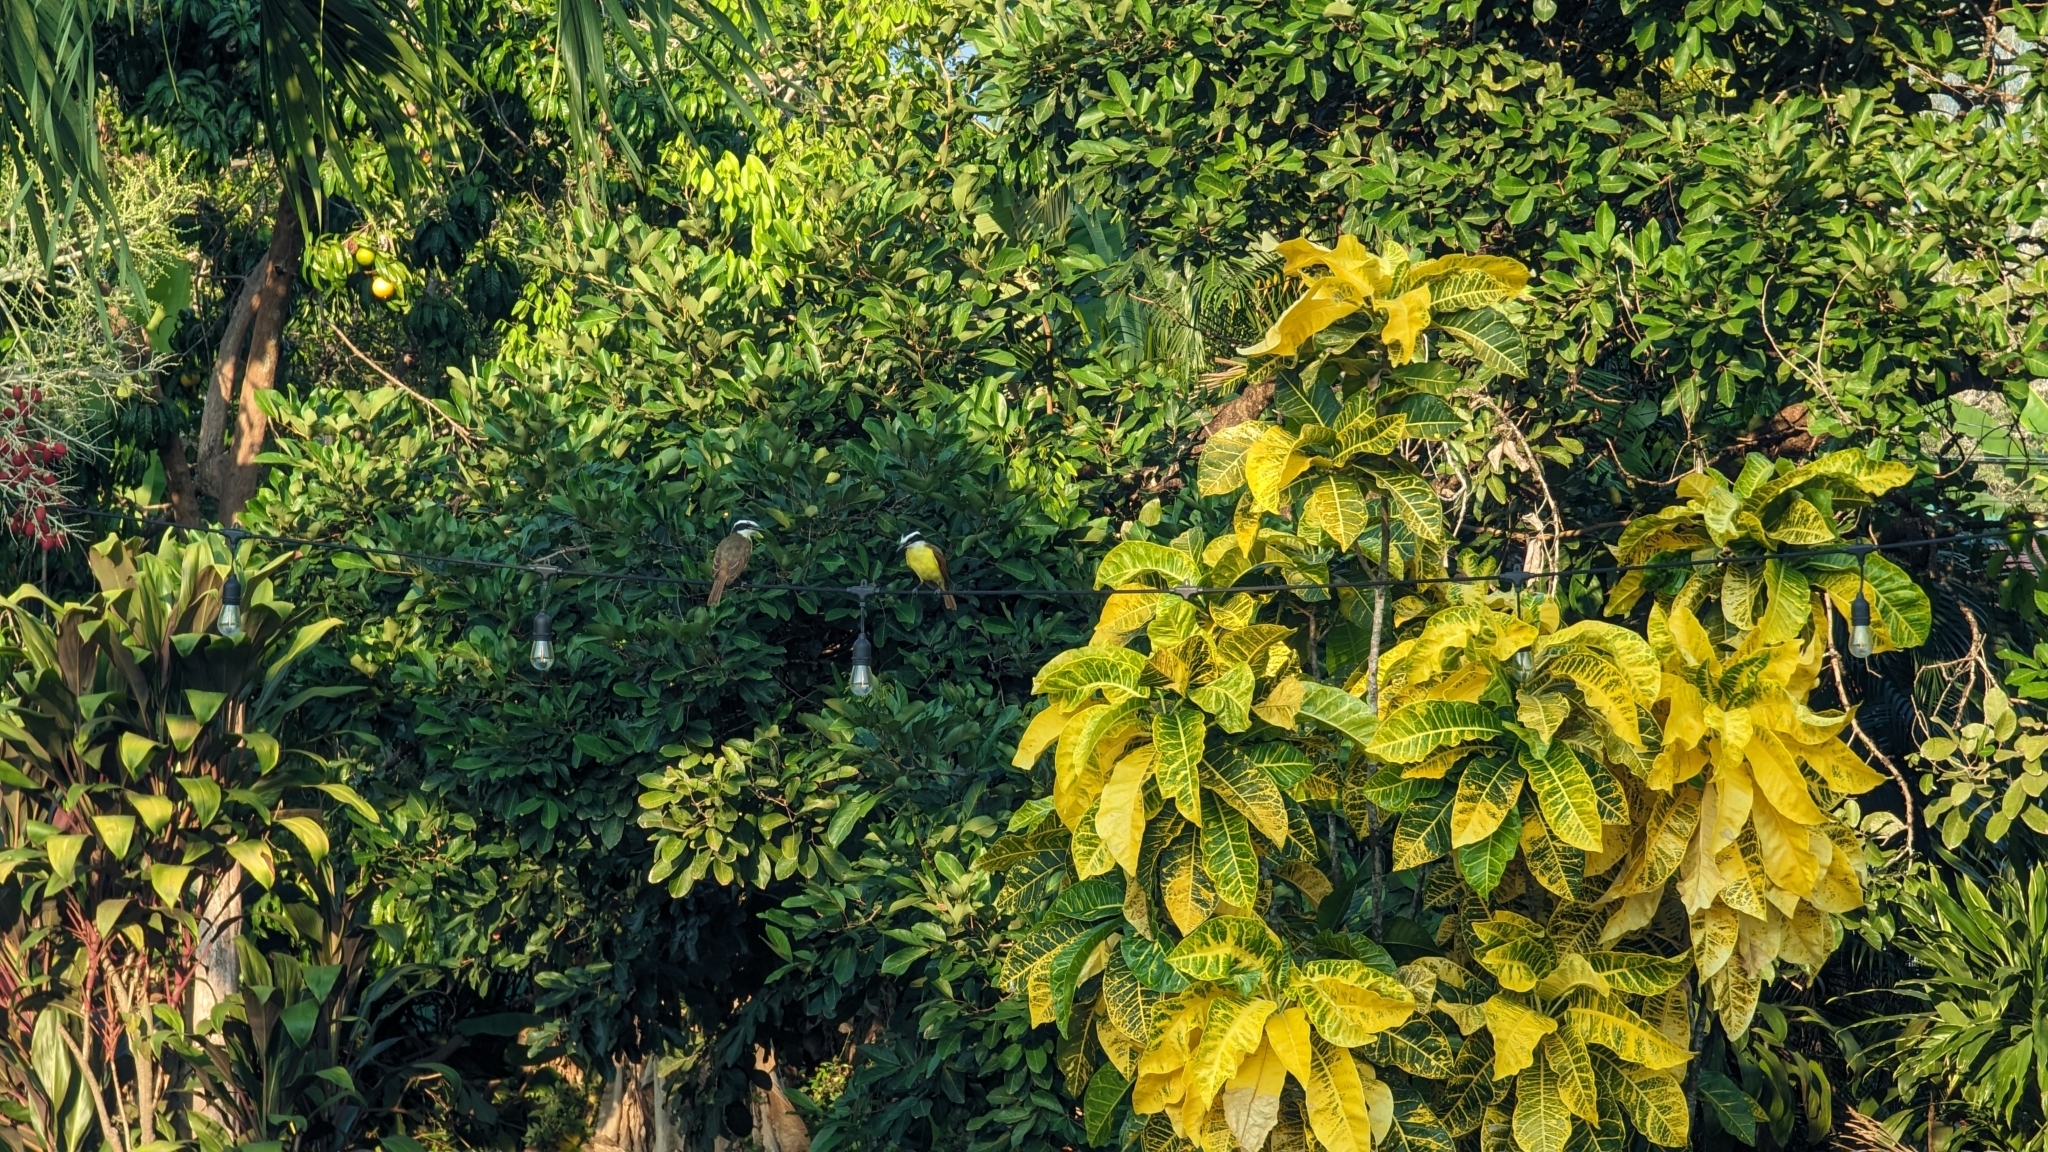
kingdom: Animalia
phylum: Chordata
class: Aves
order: Passeriformes
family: Tyrannidae
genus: Pitangus
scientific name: Pitangus sulphuratus
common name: Great kiskadee
